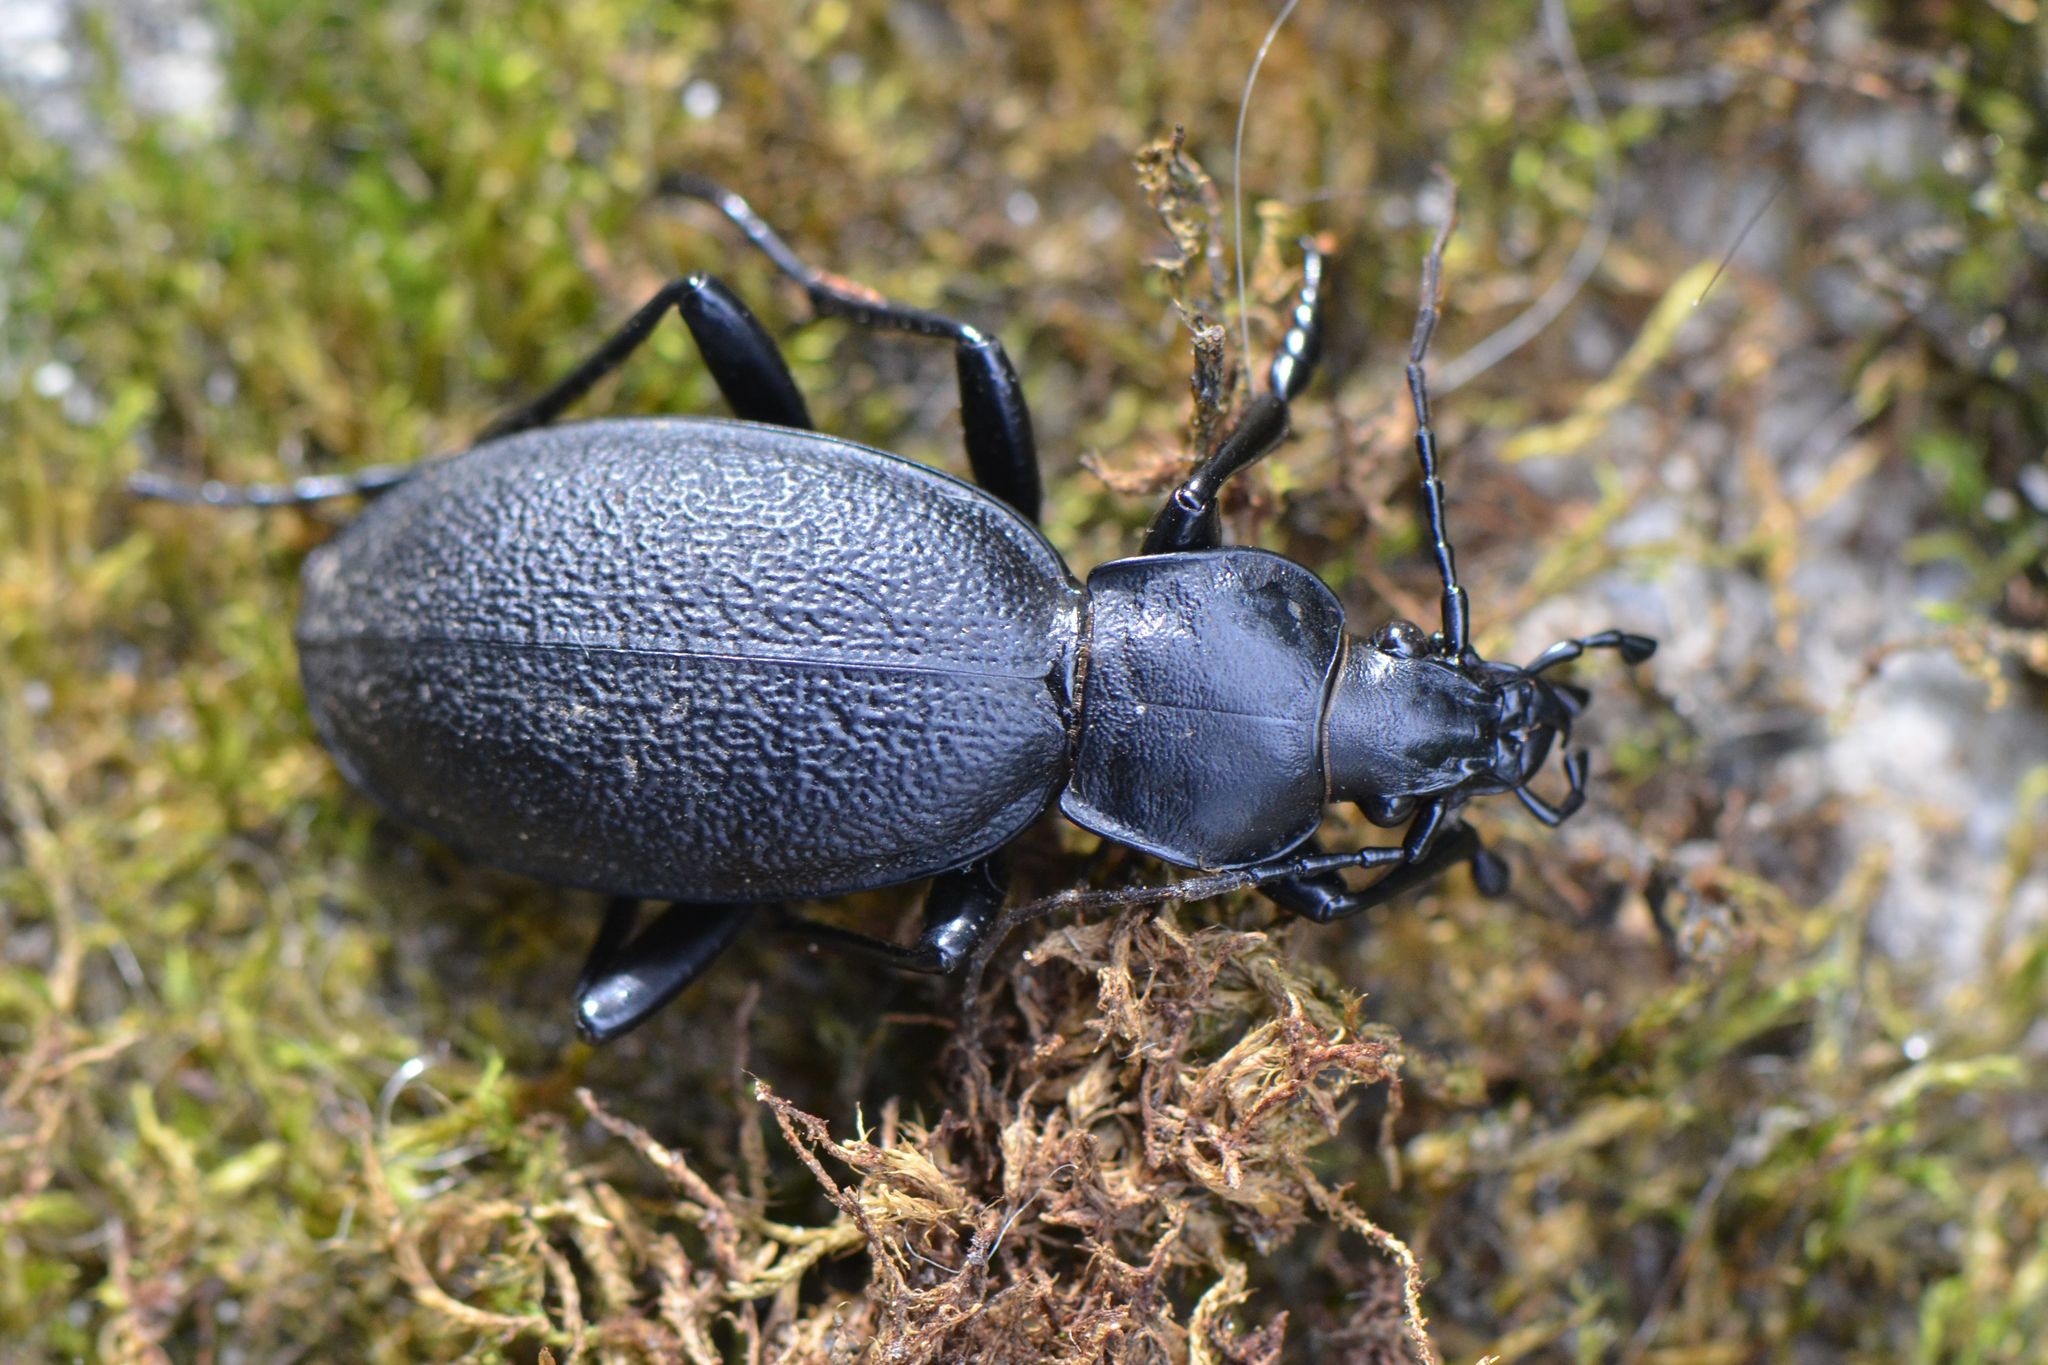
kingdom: Animalia
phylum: Arthropoda
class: Insecta
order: Coleoptera
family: Carabidae
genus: Carabus
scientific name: Carabus coriaceus
